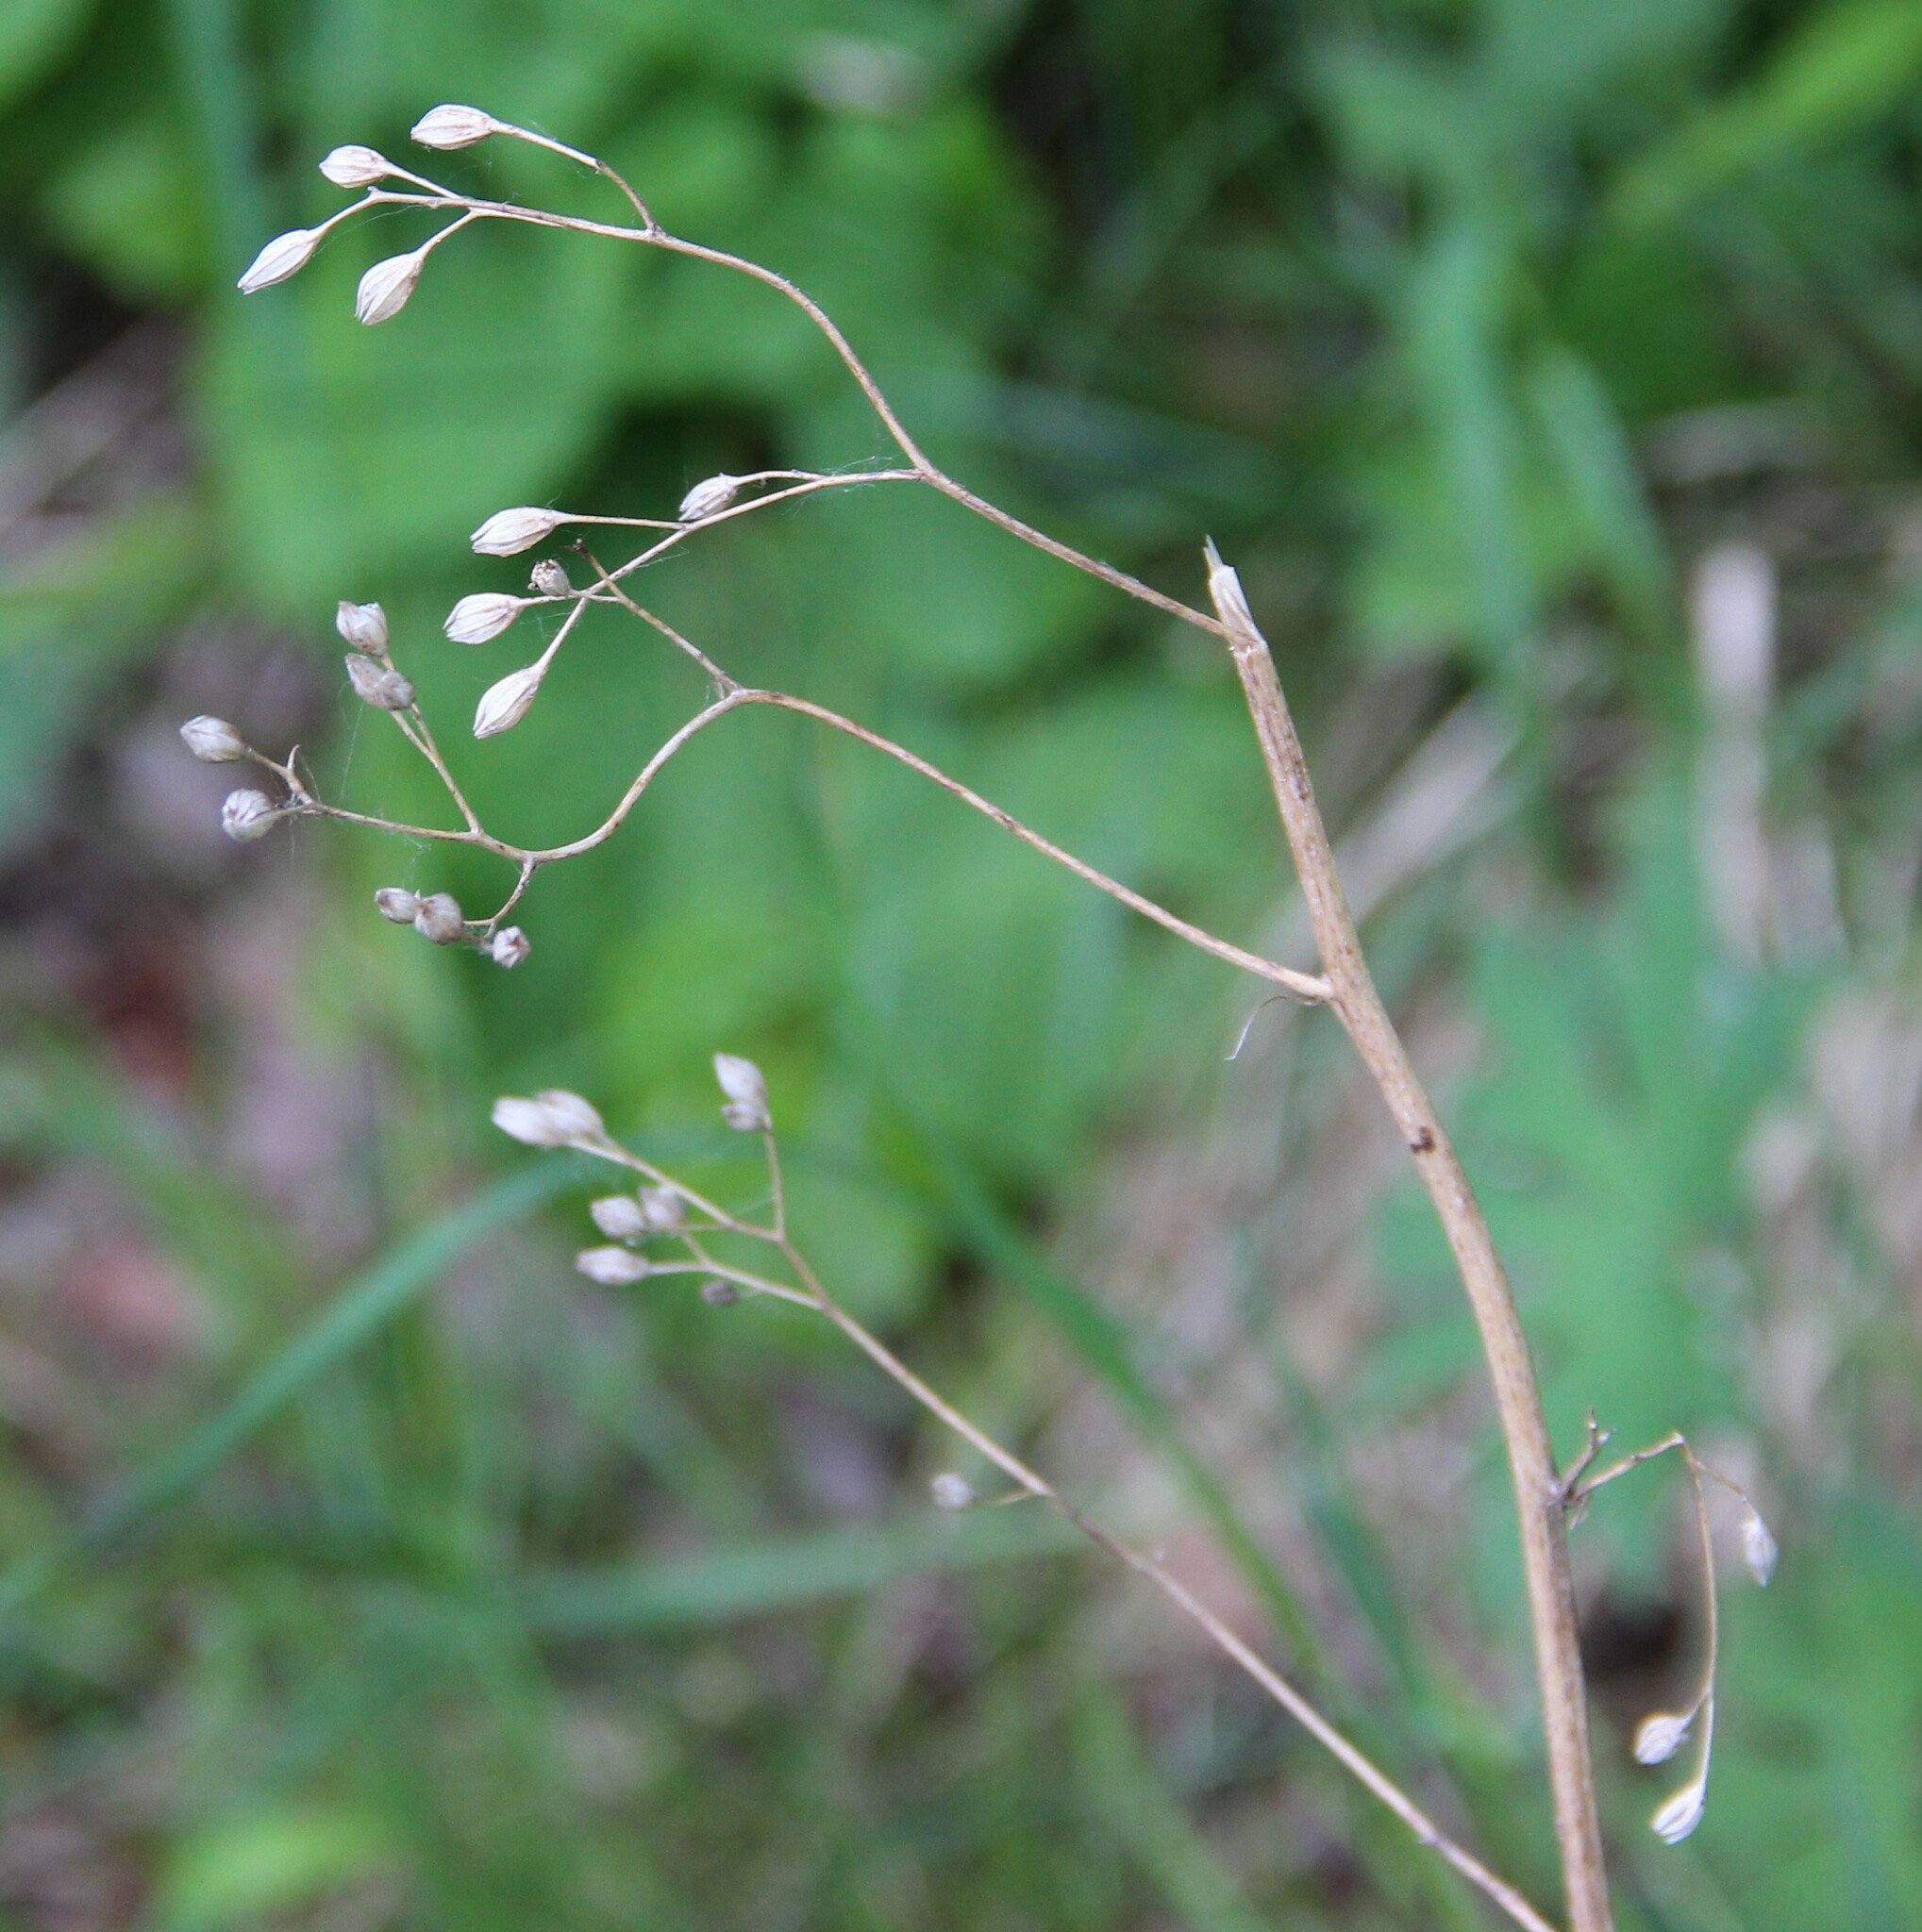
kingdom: Plantae
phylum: Tracheophyta
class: Magnoliopsida
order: Asterales
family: Asteraceae
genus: Lapsana
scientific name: Lapsana communis
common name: Nipplewort
